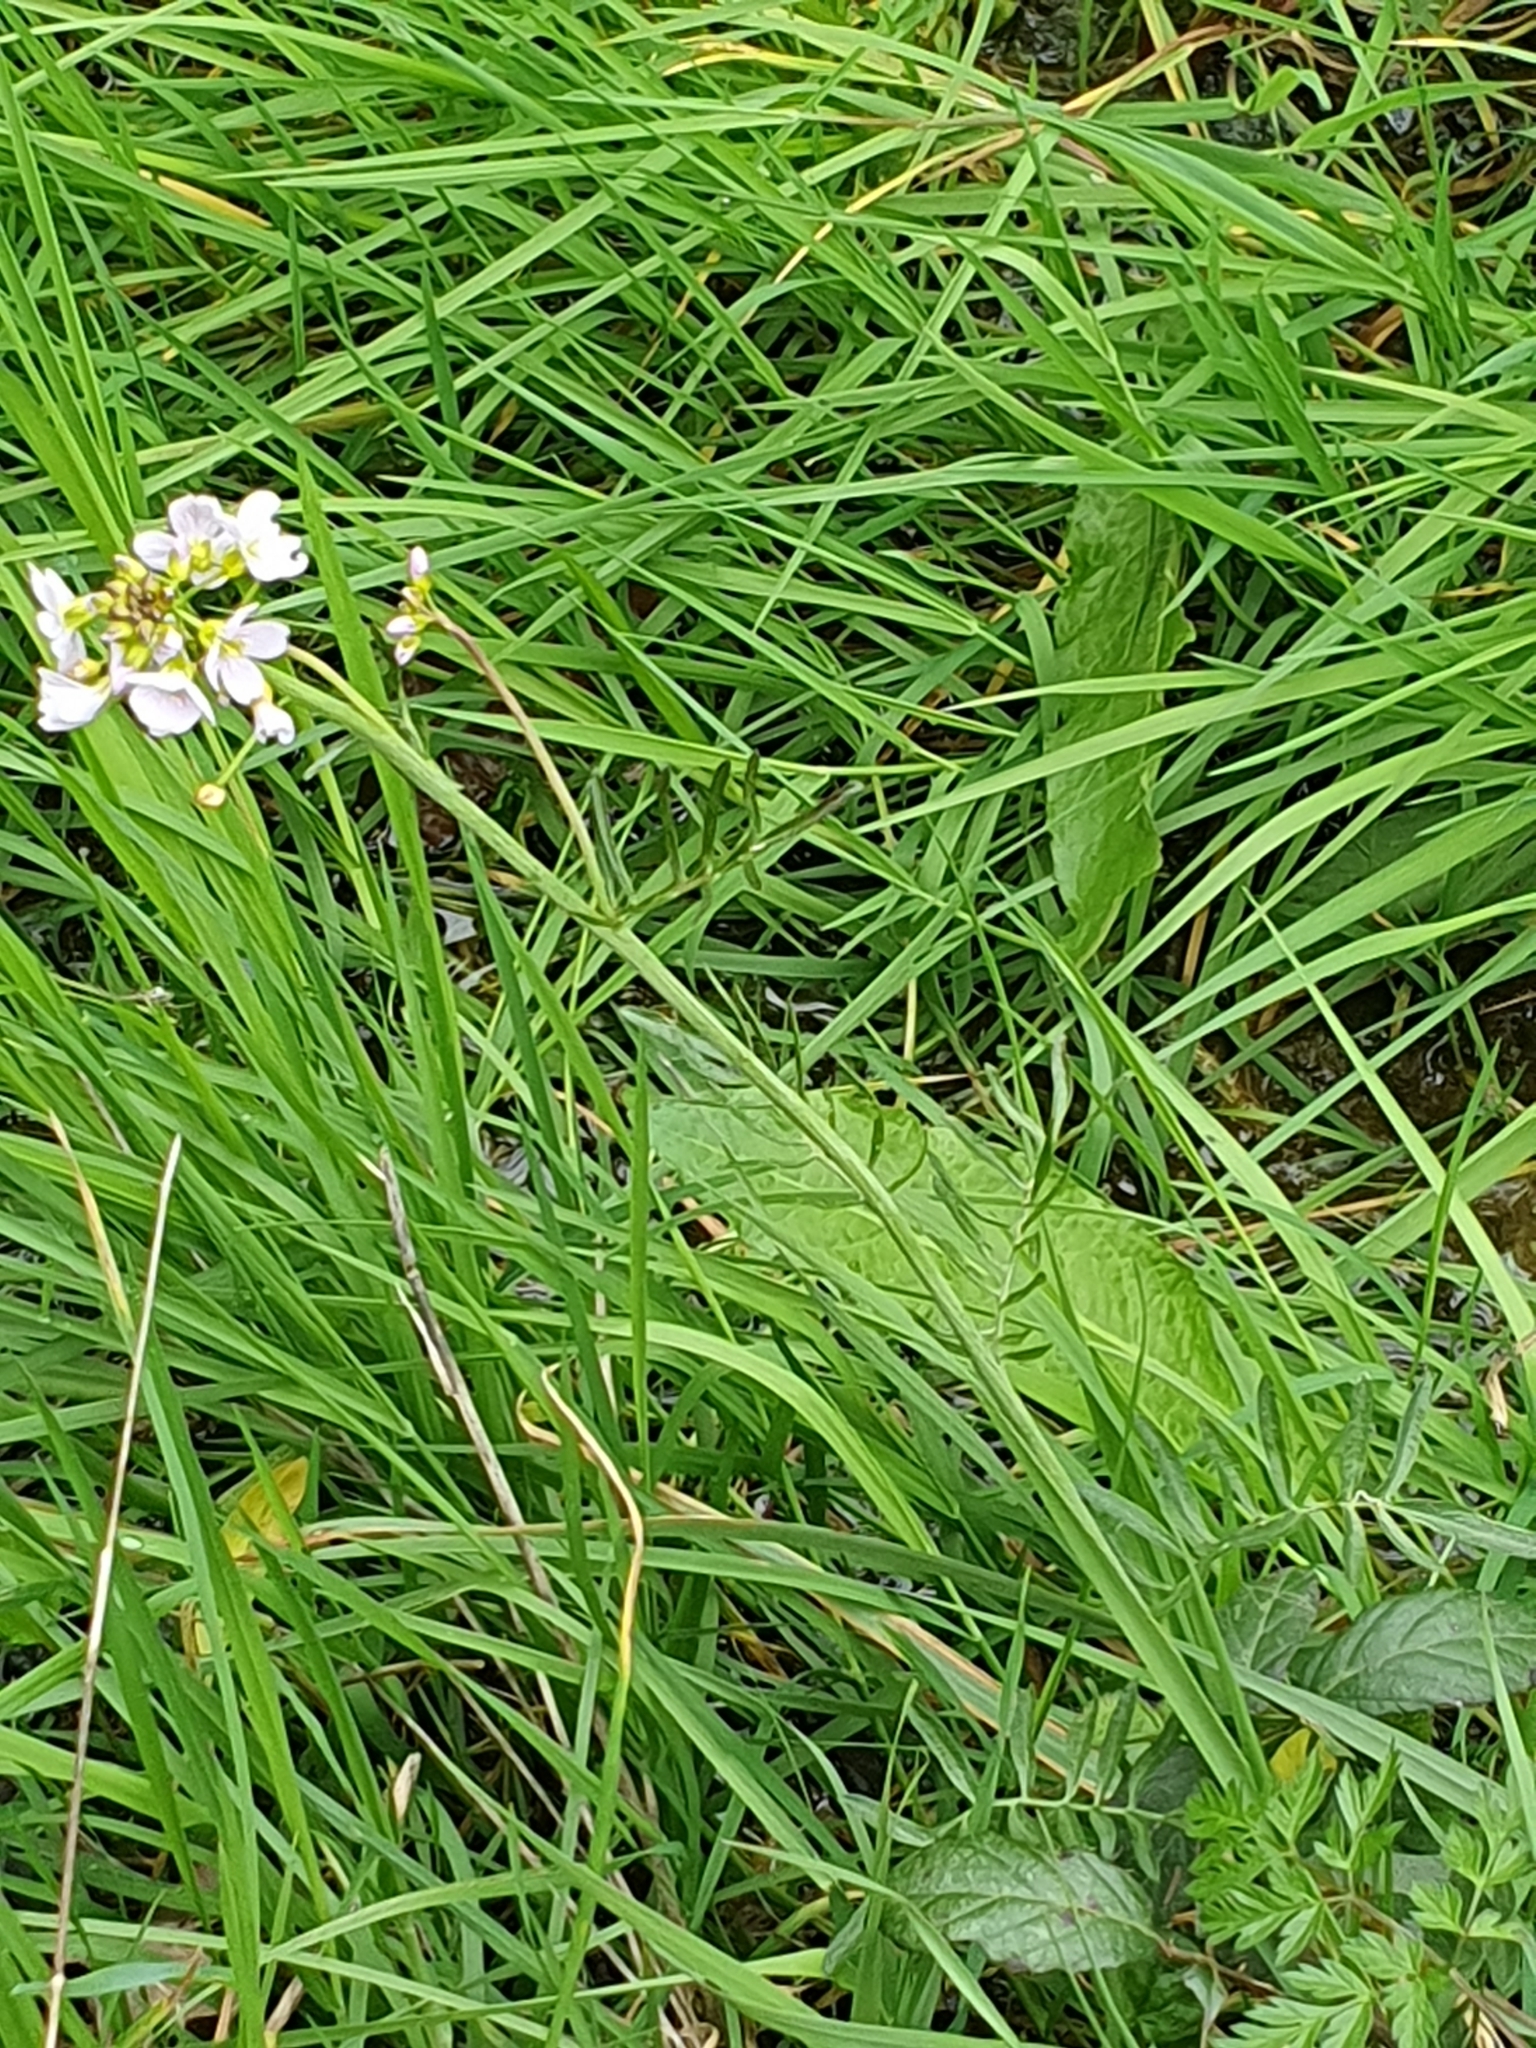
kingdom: Plantae
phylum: Tracheophyta
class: Magnoliopsida
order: Brassicales
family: Brassicaceae
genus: Cardamine
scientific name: Cardamine pratensis
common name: Cuckoo flower
